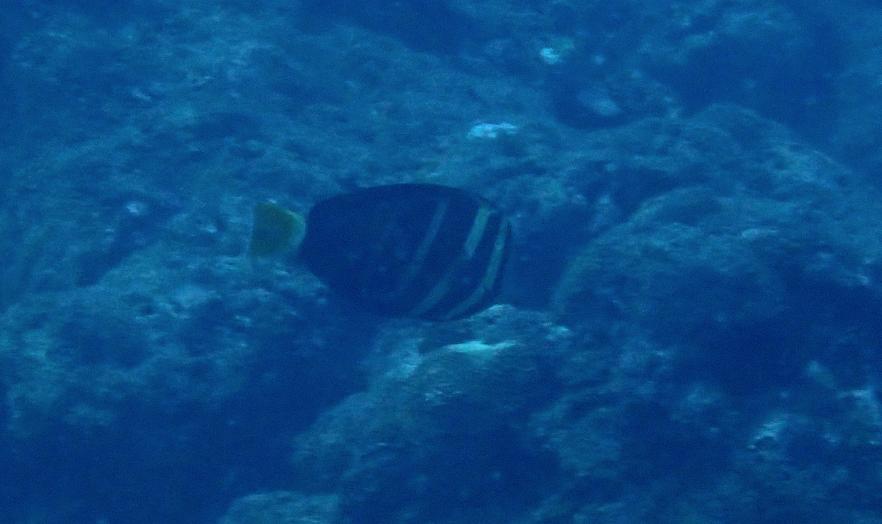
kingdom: Animalia
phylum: Chordata
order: Perciformes
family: Acanthuridae
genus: Zebrasoma
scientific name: Zebrasoma veliferum
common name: Sailfin surgeonfish
